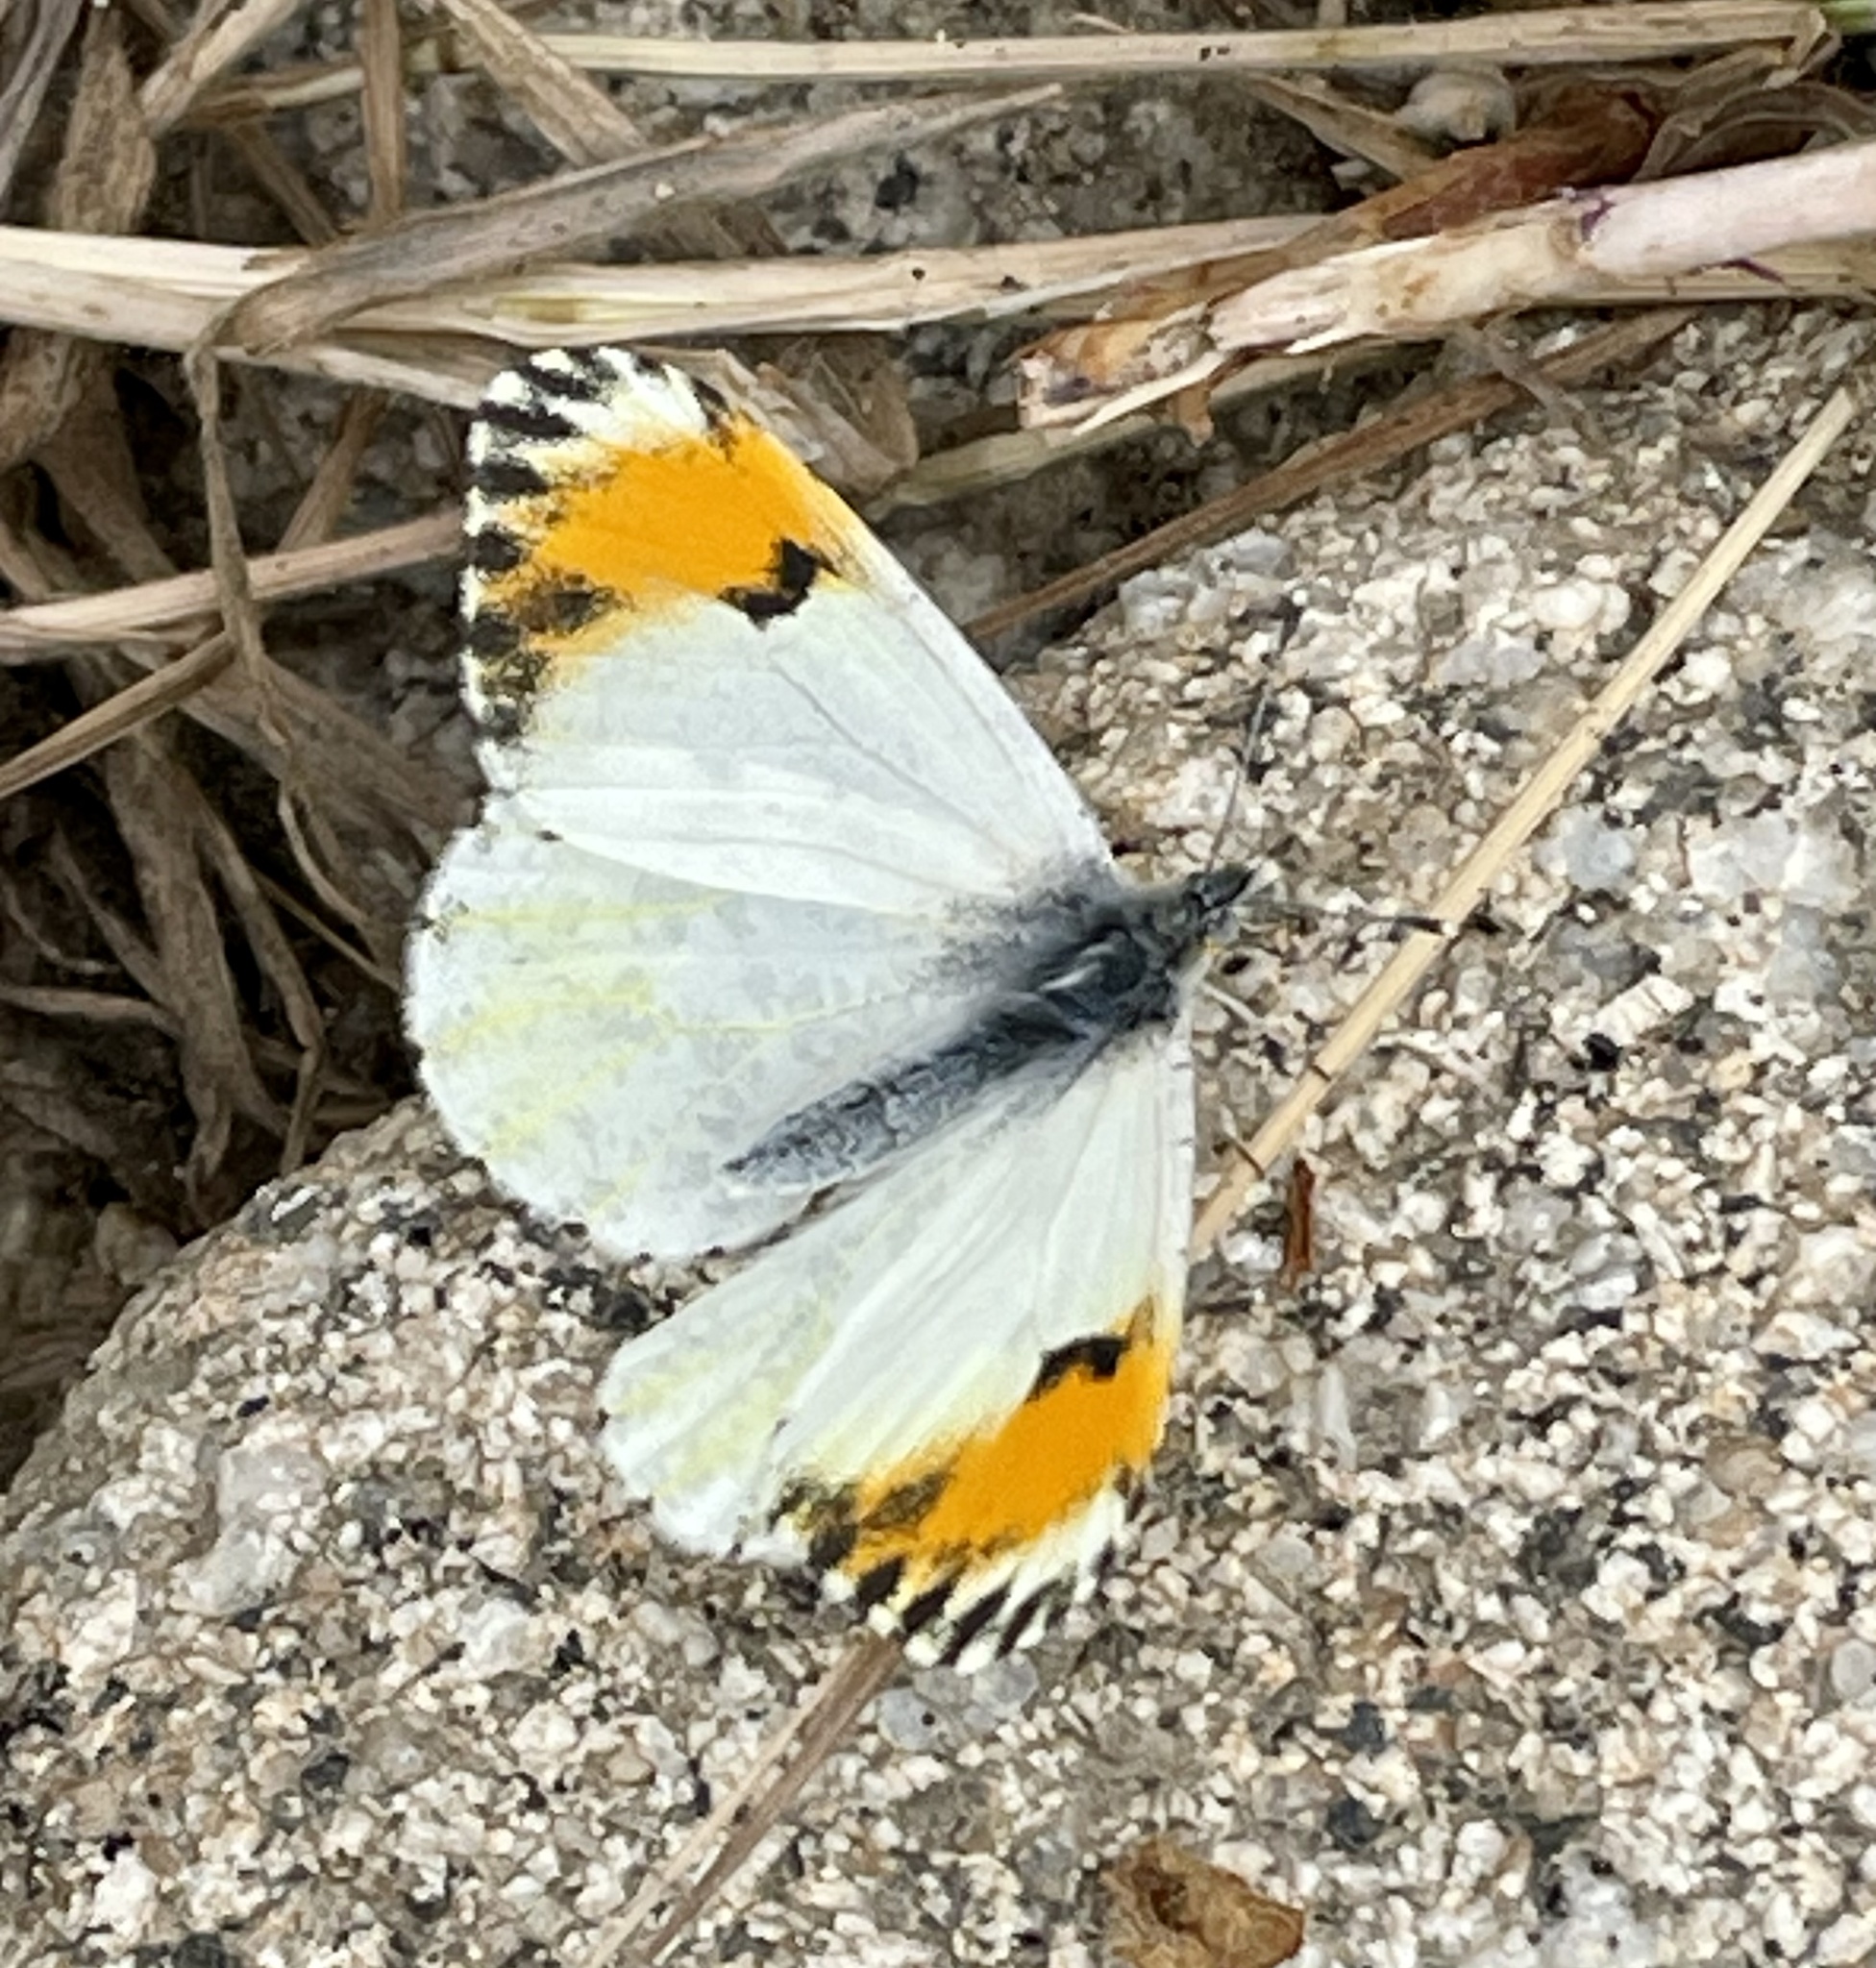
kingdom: Animalia
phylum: Arthropoda
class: Insecta
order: Lepidoptera
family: Pieridae
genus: Anthocharis
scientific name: Anthocharis sara
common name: Sara's orangetip
